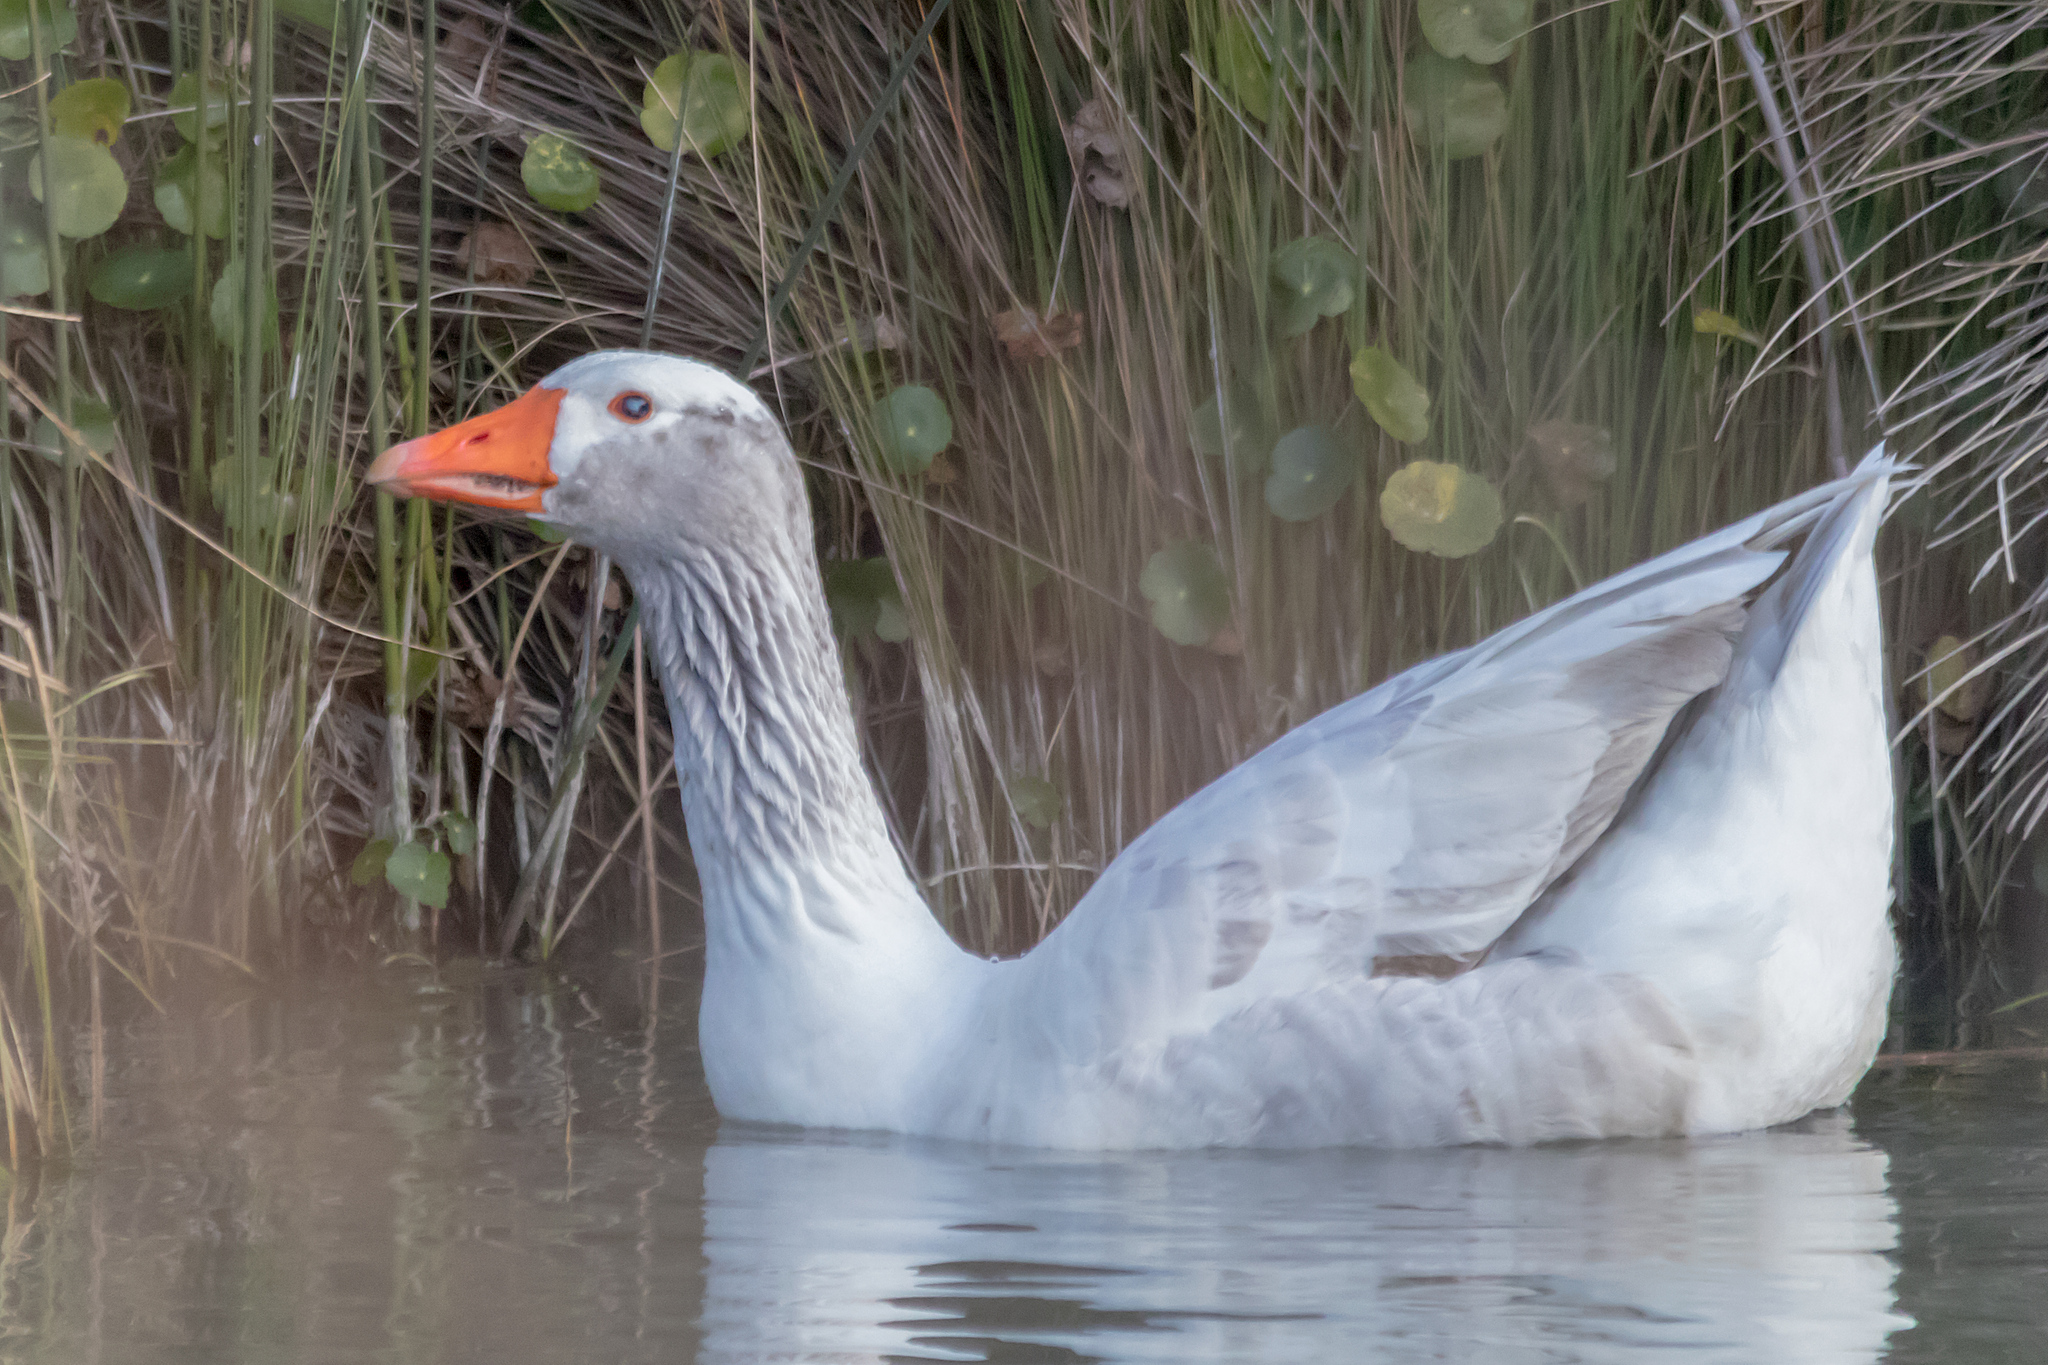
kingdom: Animalia
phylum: Chordata
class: Aves
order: Anseriformes
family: Anatidae
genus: Anser
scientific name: Anser anser
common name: Greylag goose
